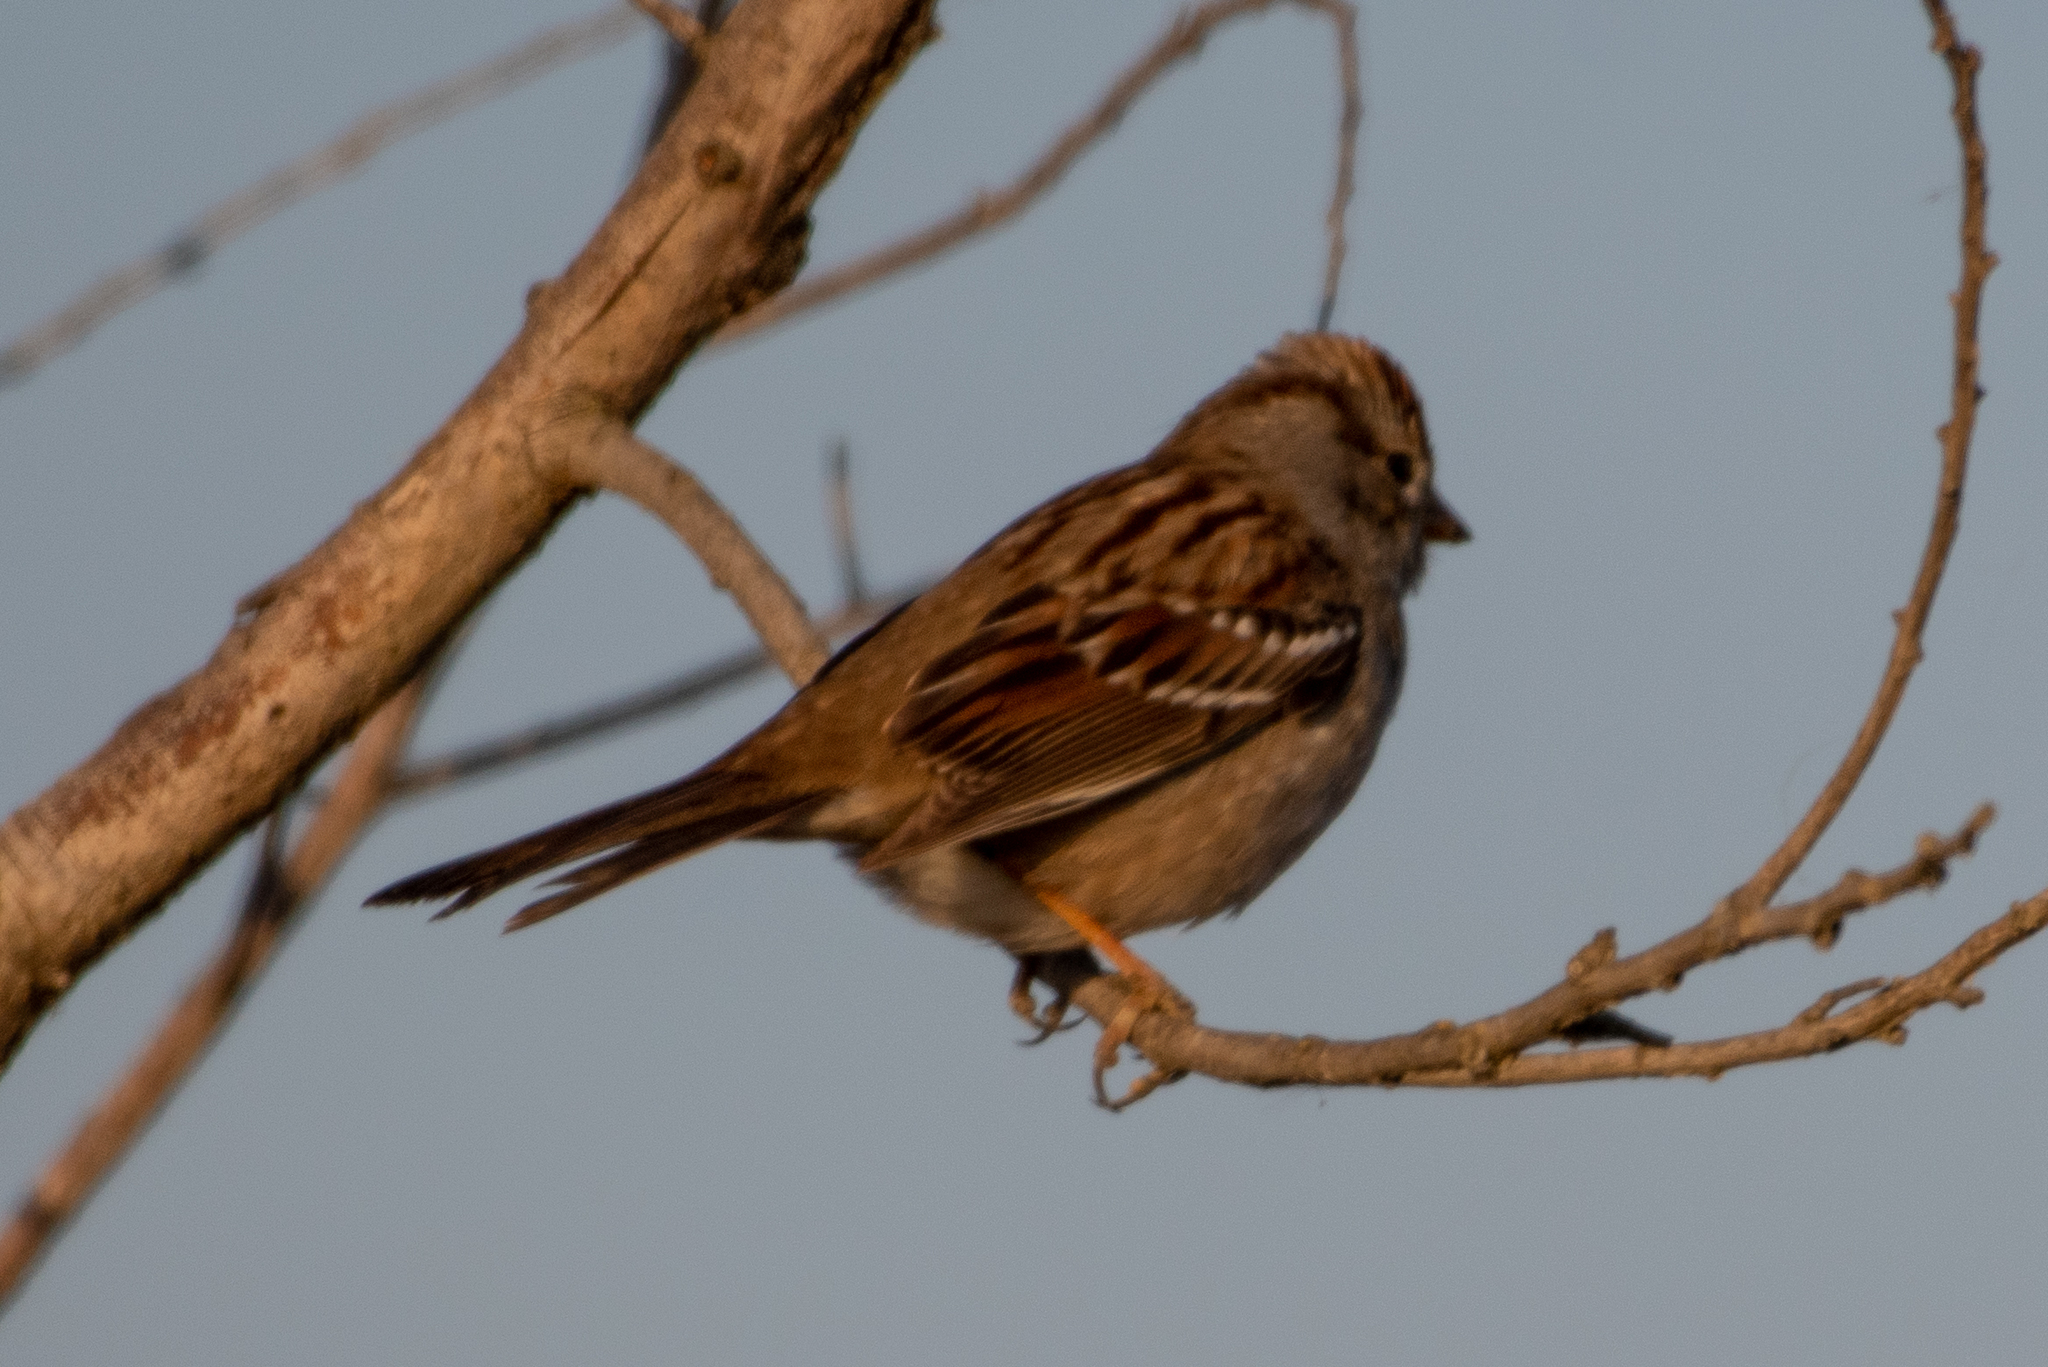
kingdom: Animalia
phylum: Chordata
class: Aves
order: Passeriformes
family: Passerellidae
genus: Zonotrichia
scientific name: Zonotrichia leucophrys
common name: White-crowned sparrow
